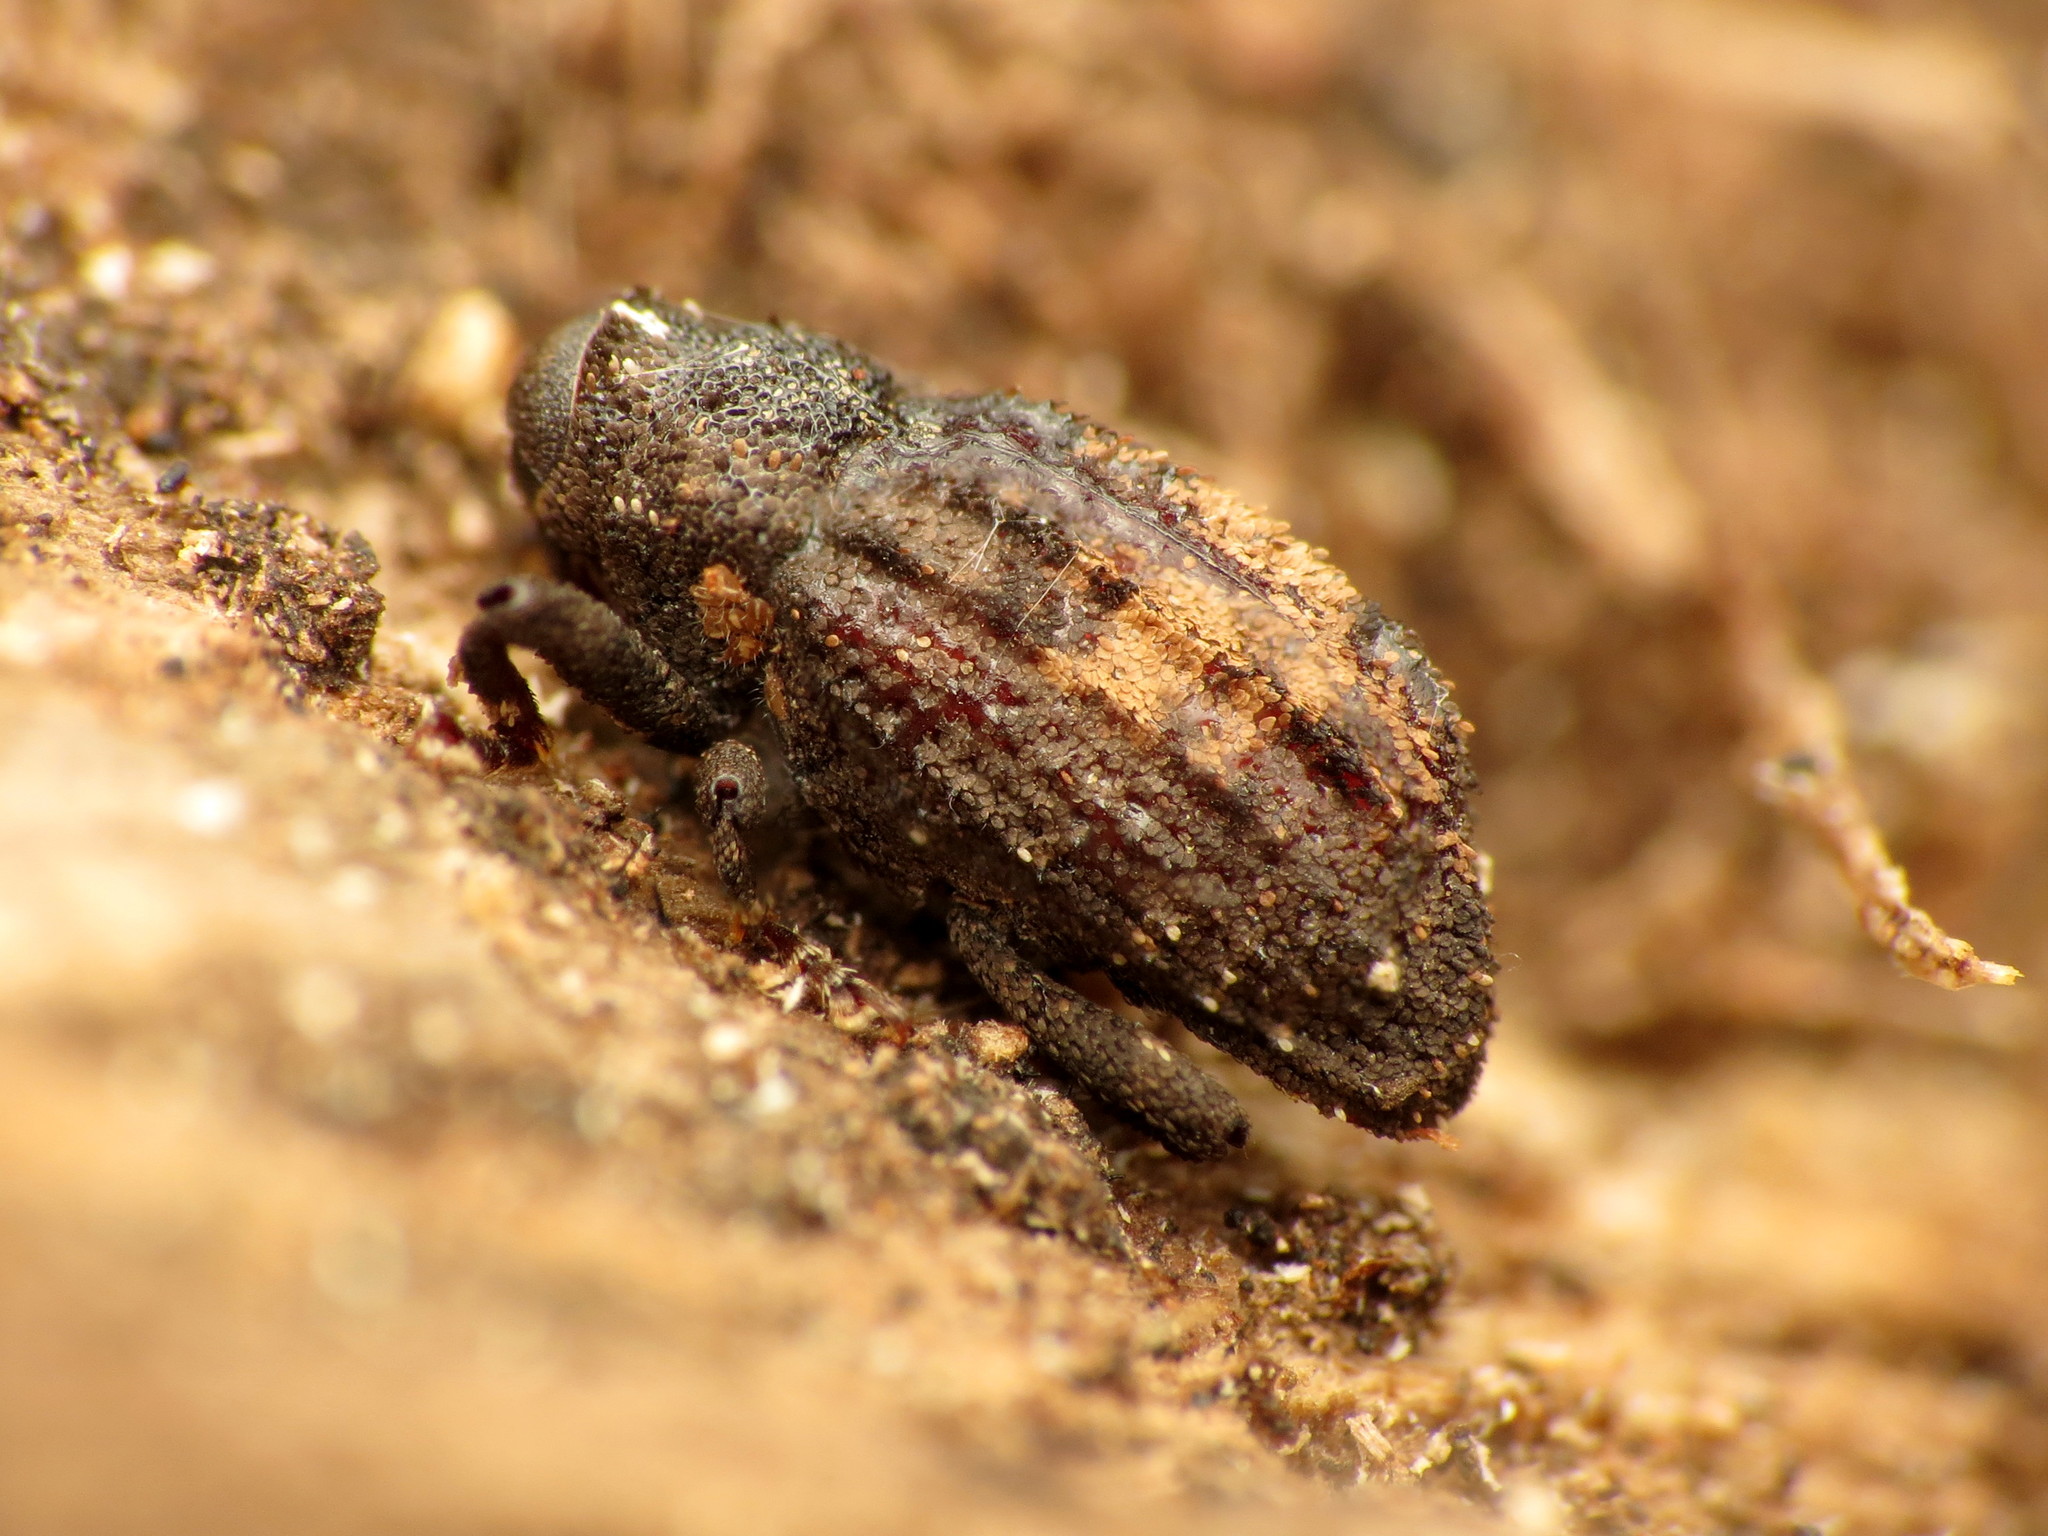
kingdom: Animalia
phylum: Arthropoda
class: Insecta
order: Coleoptera
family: Curculionidae
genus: Cophes
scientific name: Cophes obtentus
